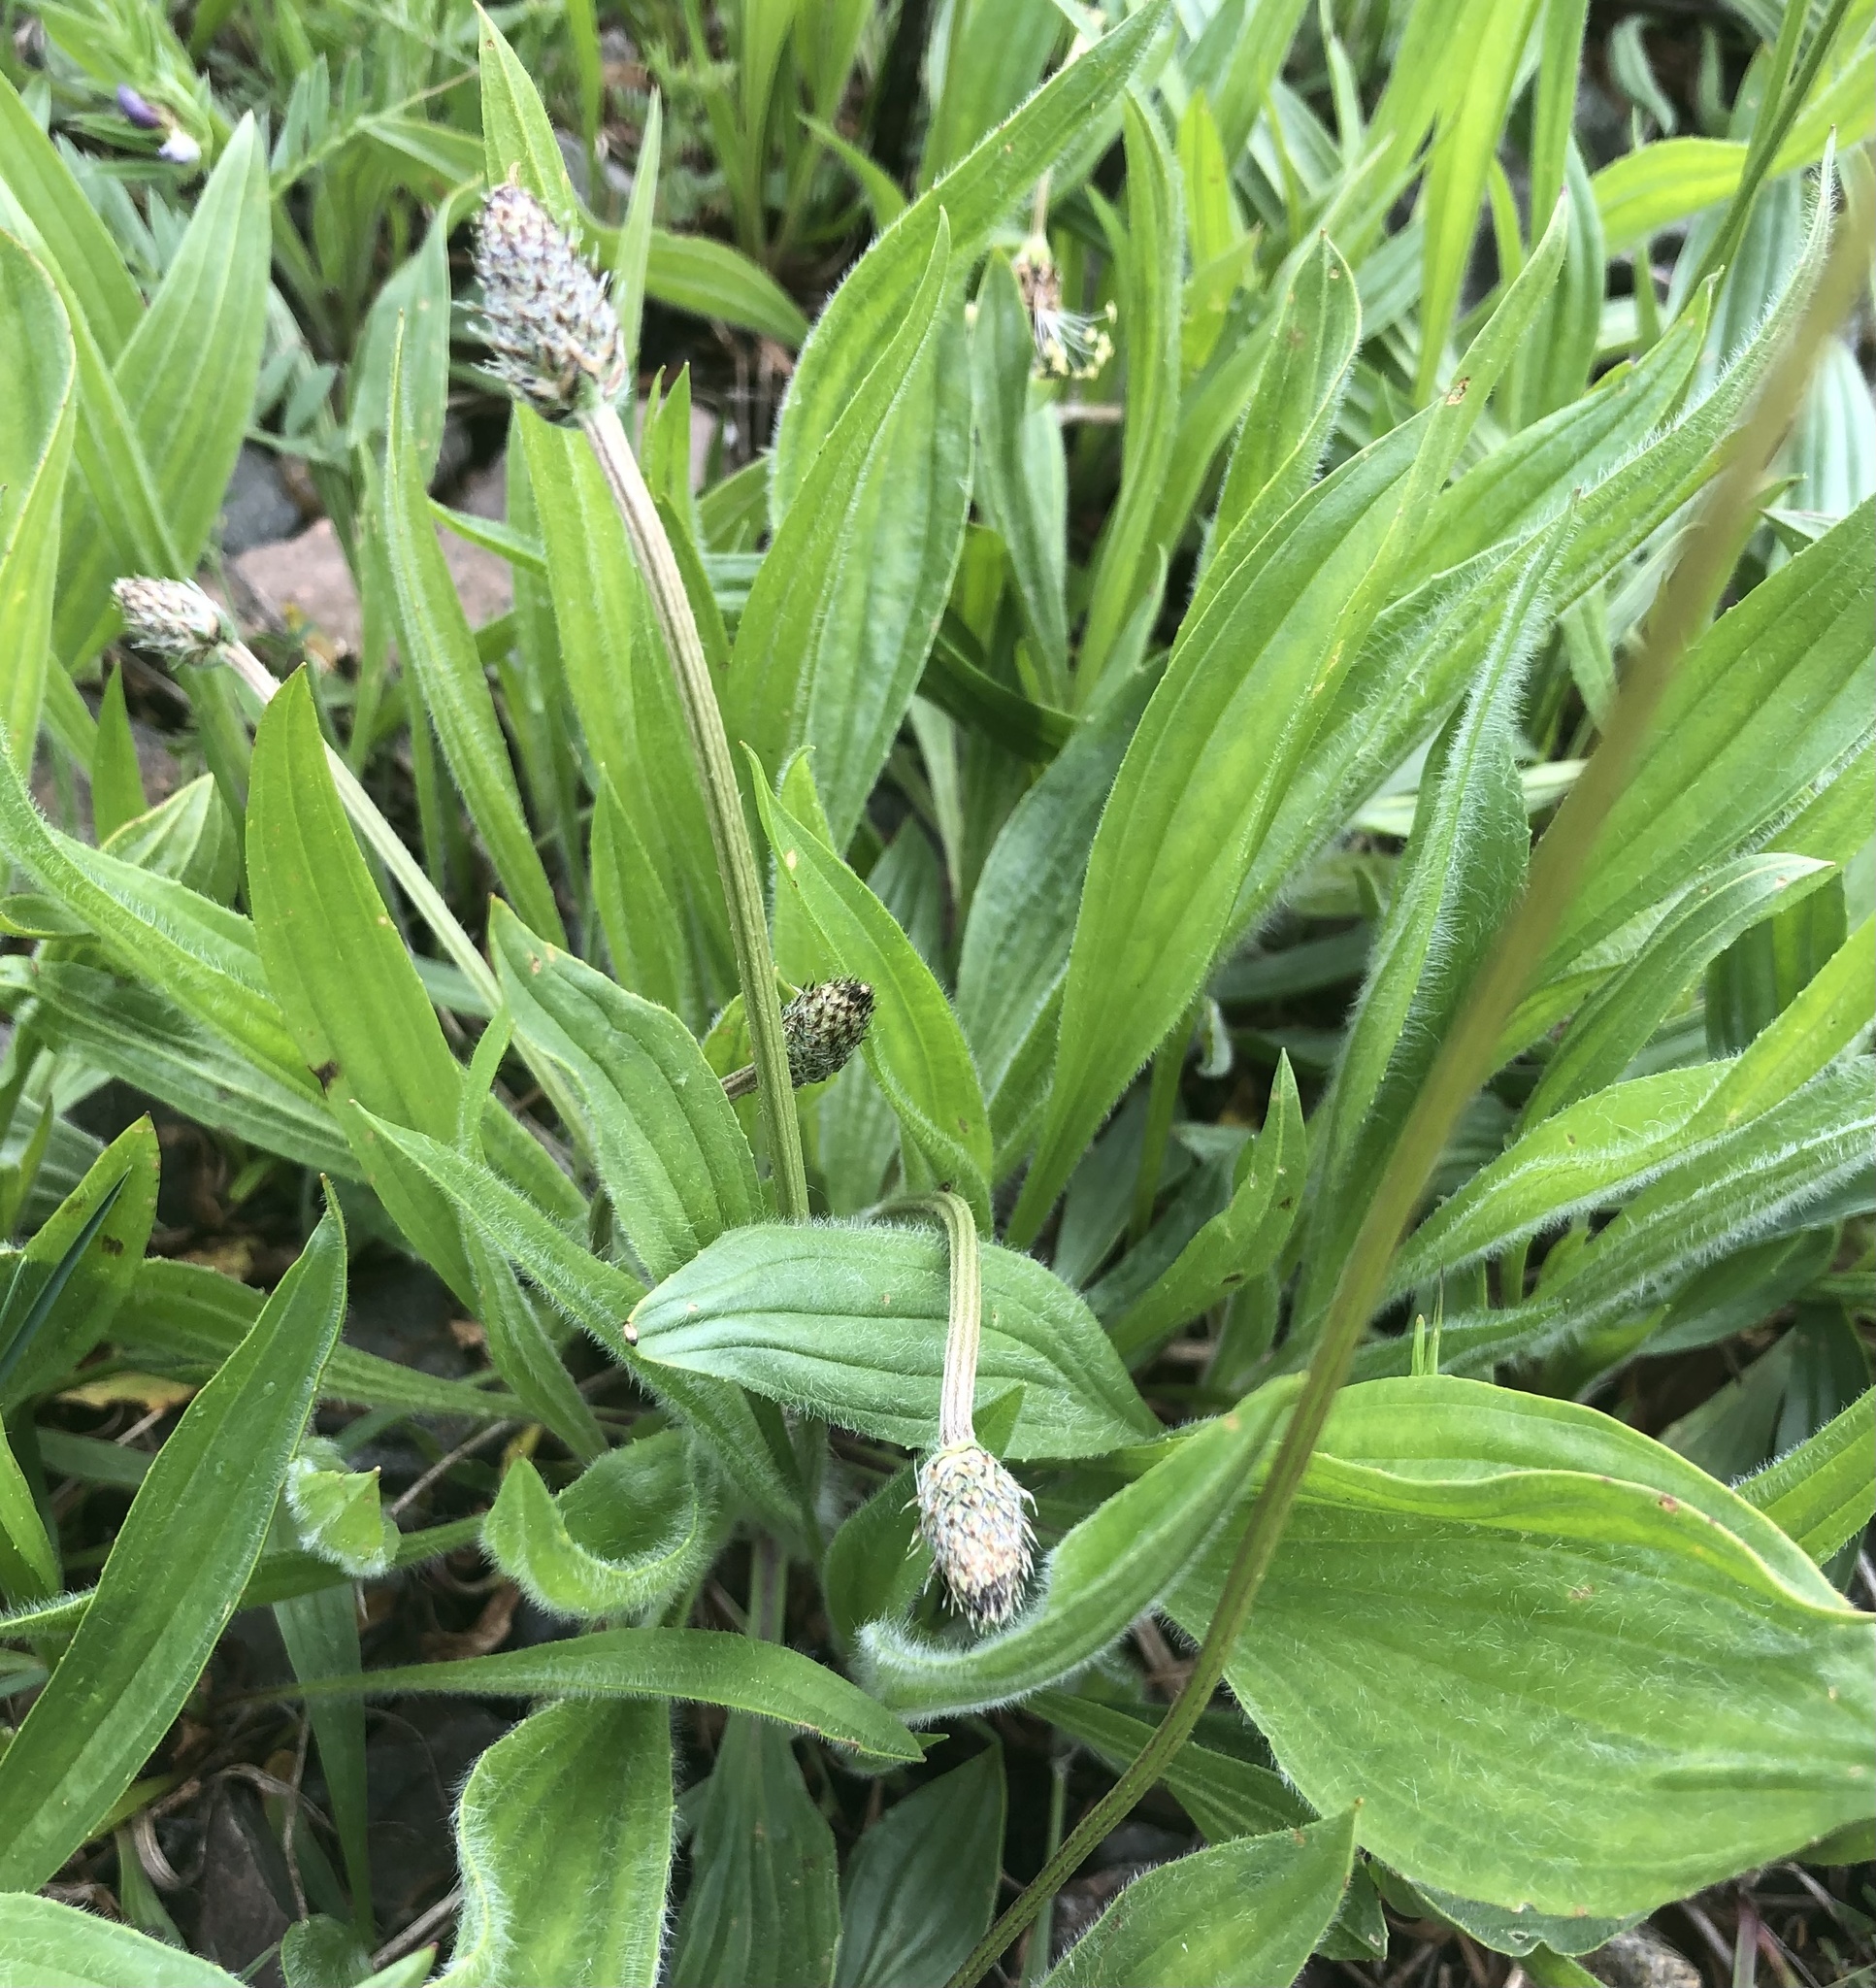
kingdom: Plantae
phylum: Tracheophyta
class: Magnoliopsida
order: Lamiales
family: Plantaginaceae
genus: Plantago
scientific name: Plantago lanceolata
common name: Ribwort plantain
